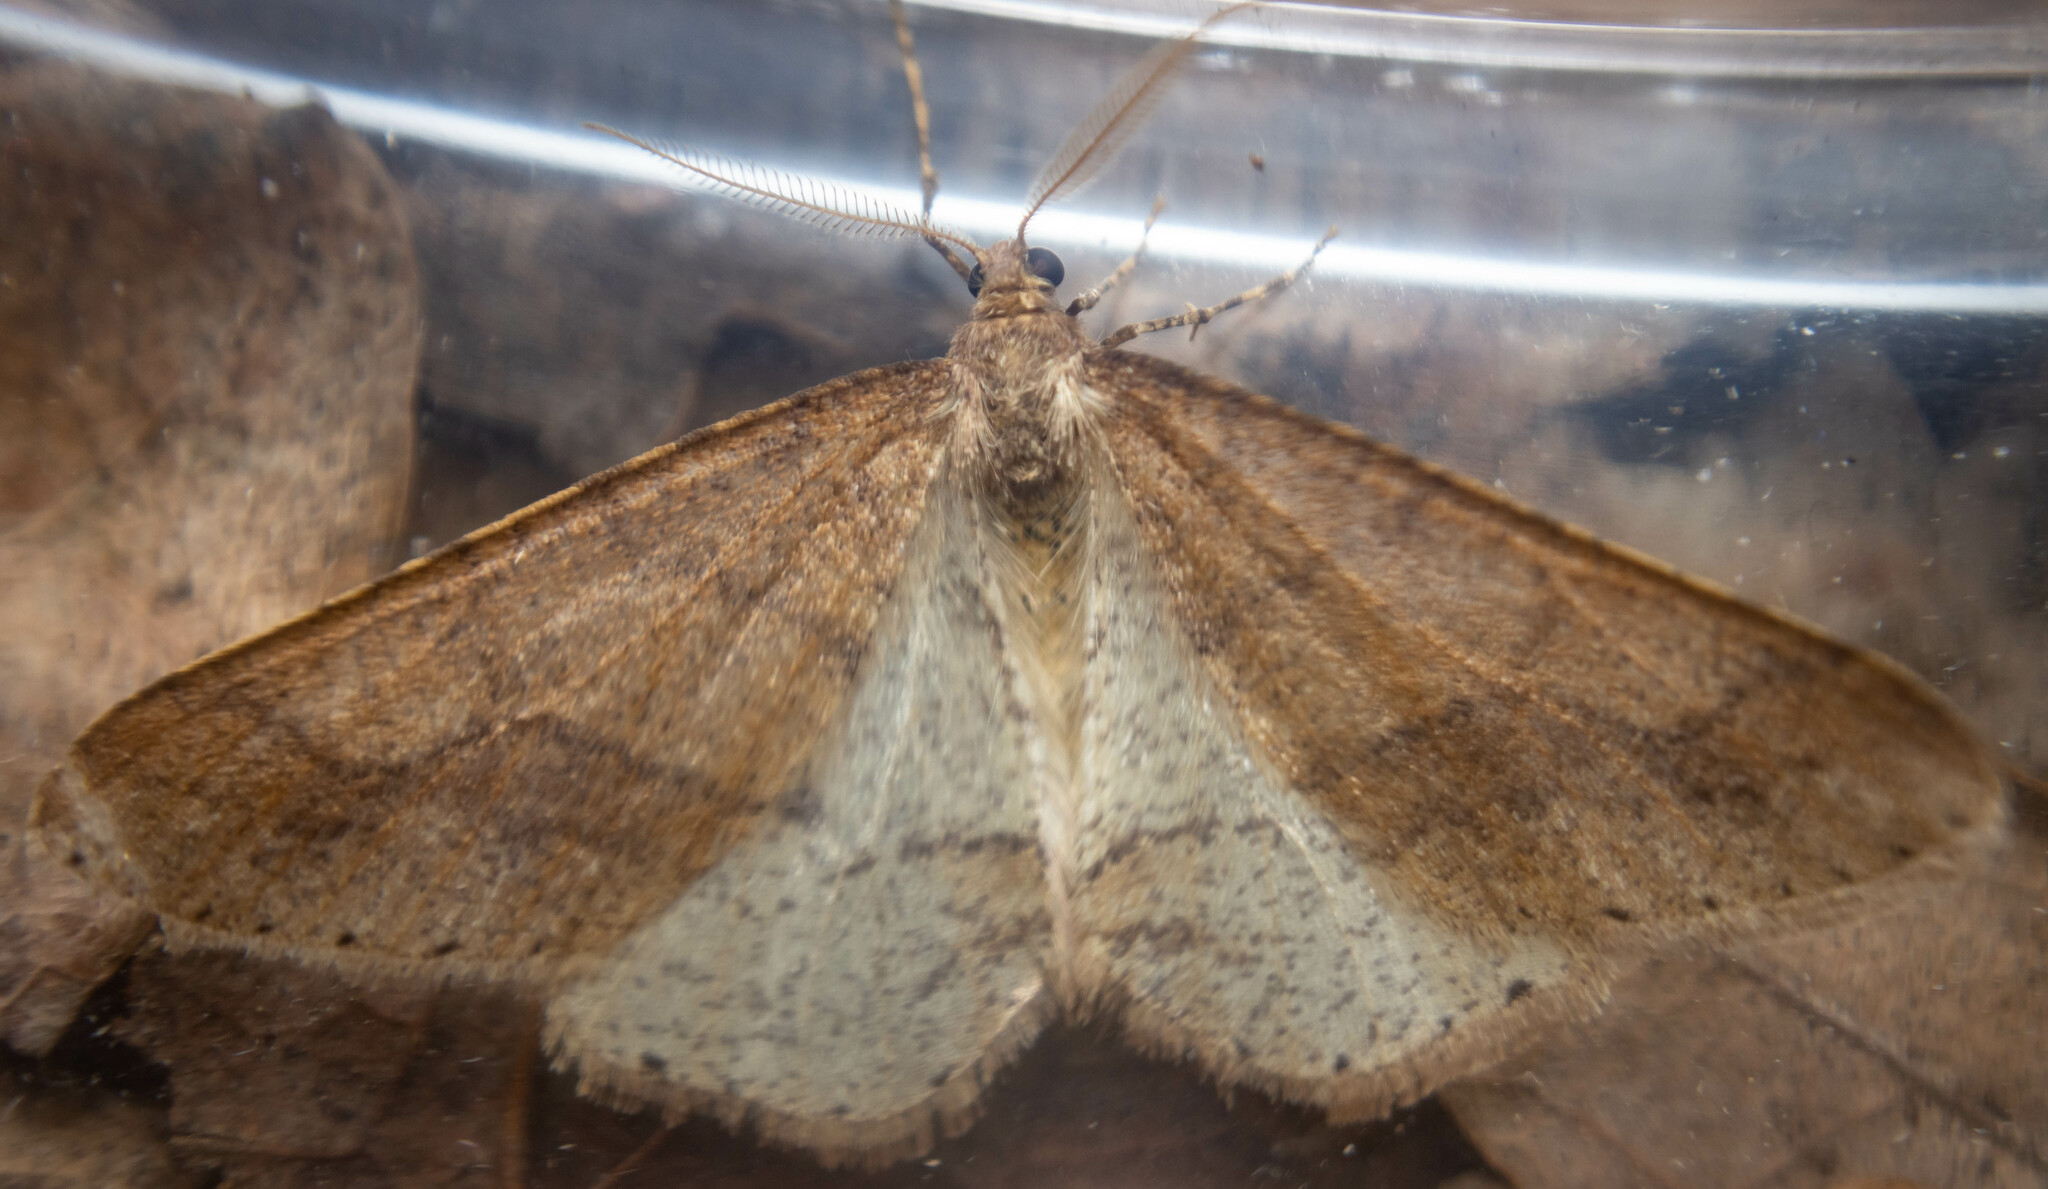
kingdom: Animalia
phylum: Arthropoda
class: Insecta
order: Lepidoptera
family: Geometridae
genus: Agriopis
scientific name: Agriopis marginaria
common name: Dotted border
